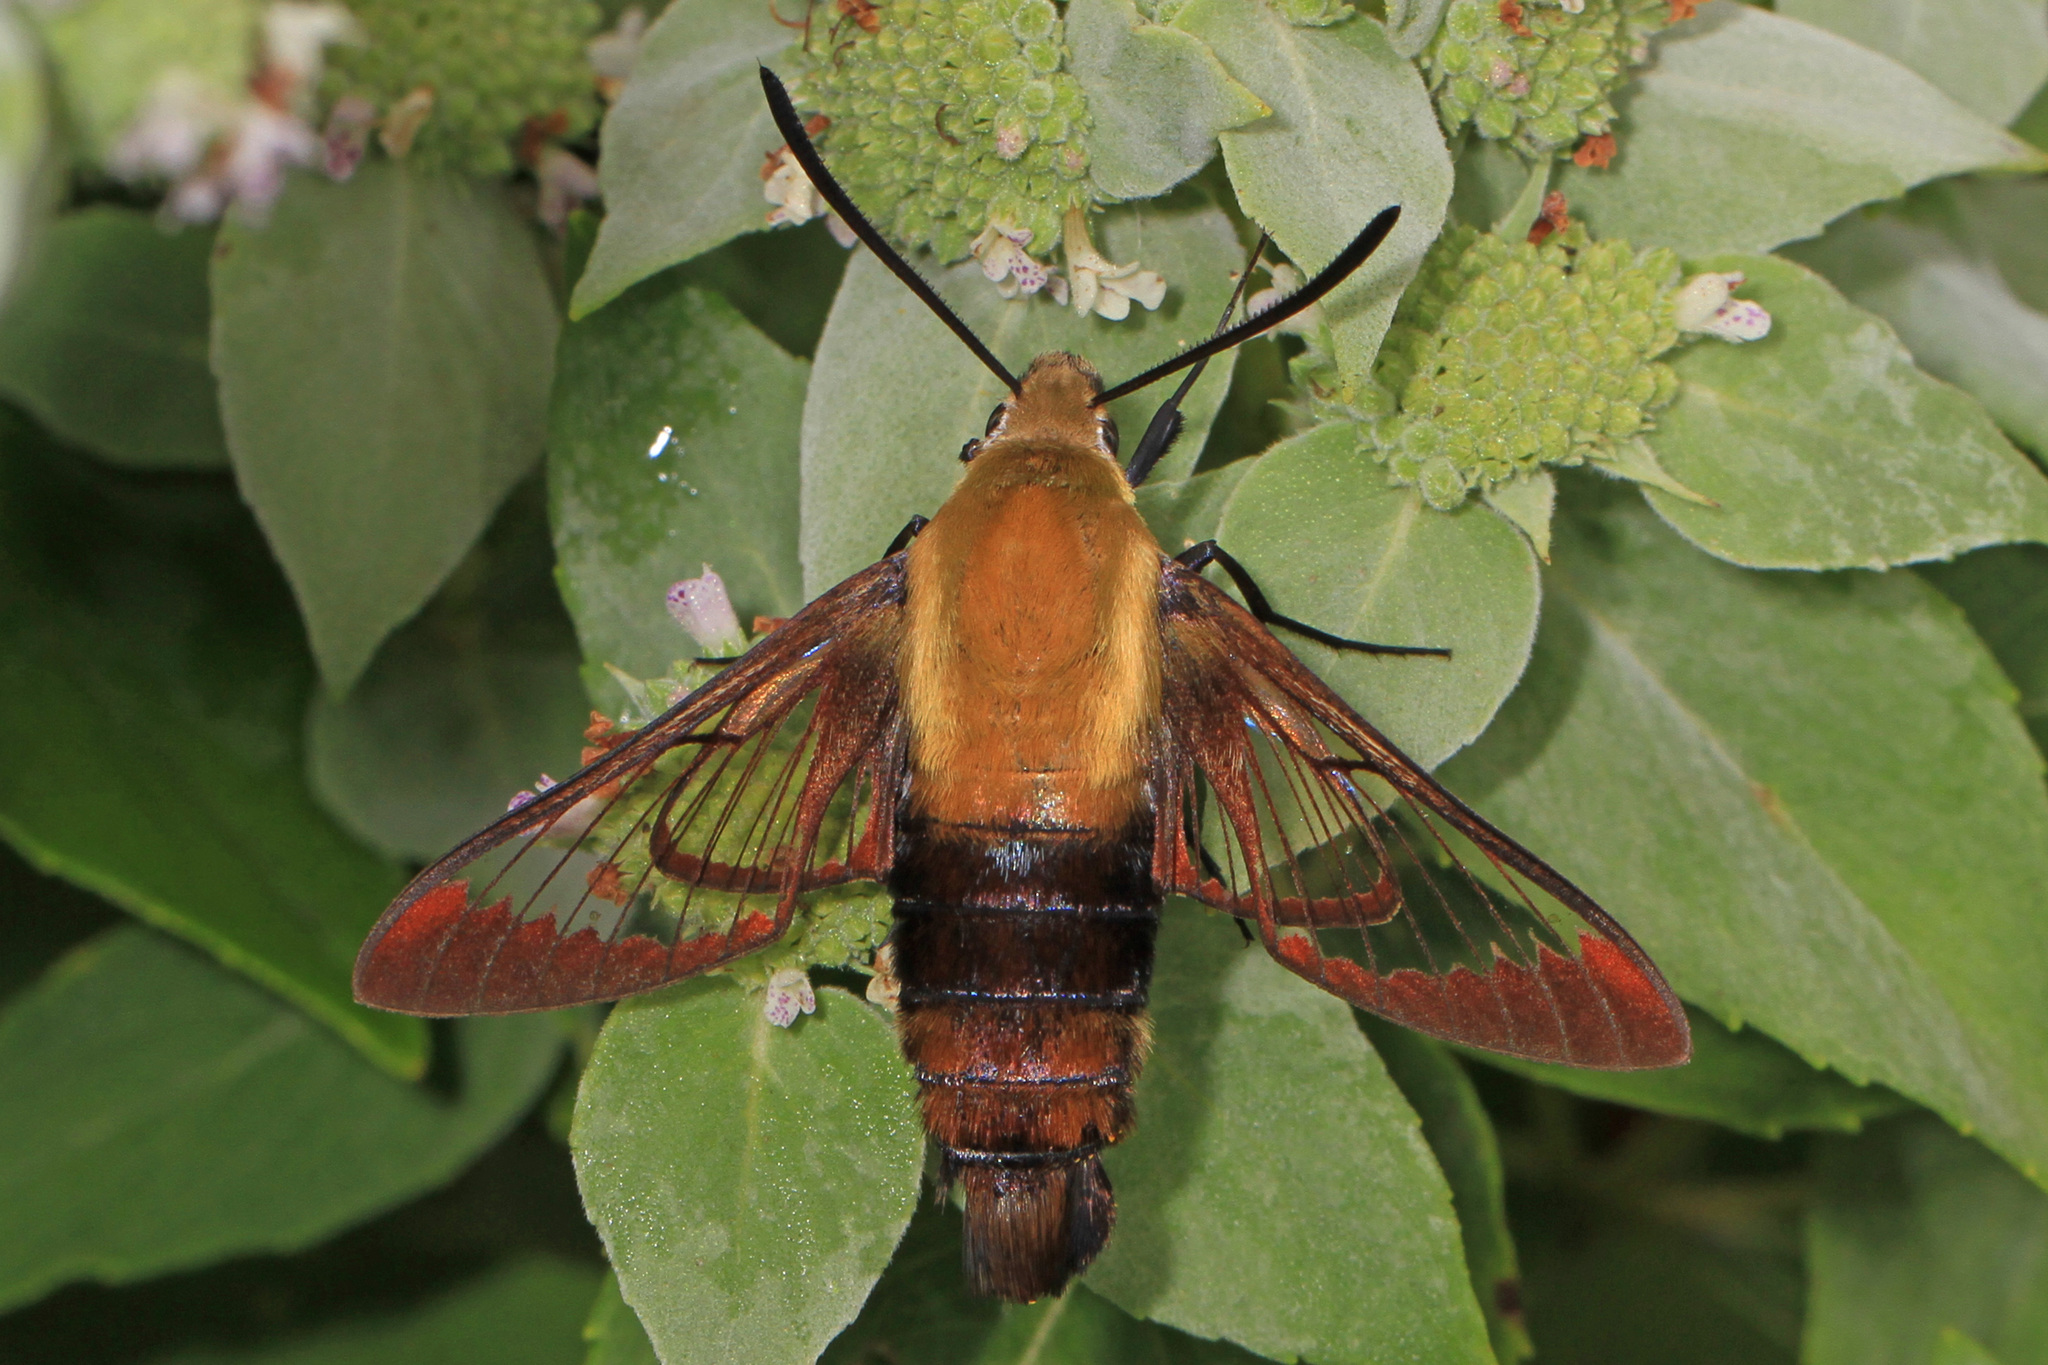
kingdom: Animalia
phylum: Arthropoda
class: Insecta
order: Lepidoptera
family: Sphingidae
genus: Hemaris
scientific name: Hemaris diffinis
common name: Bumblebee moth
